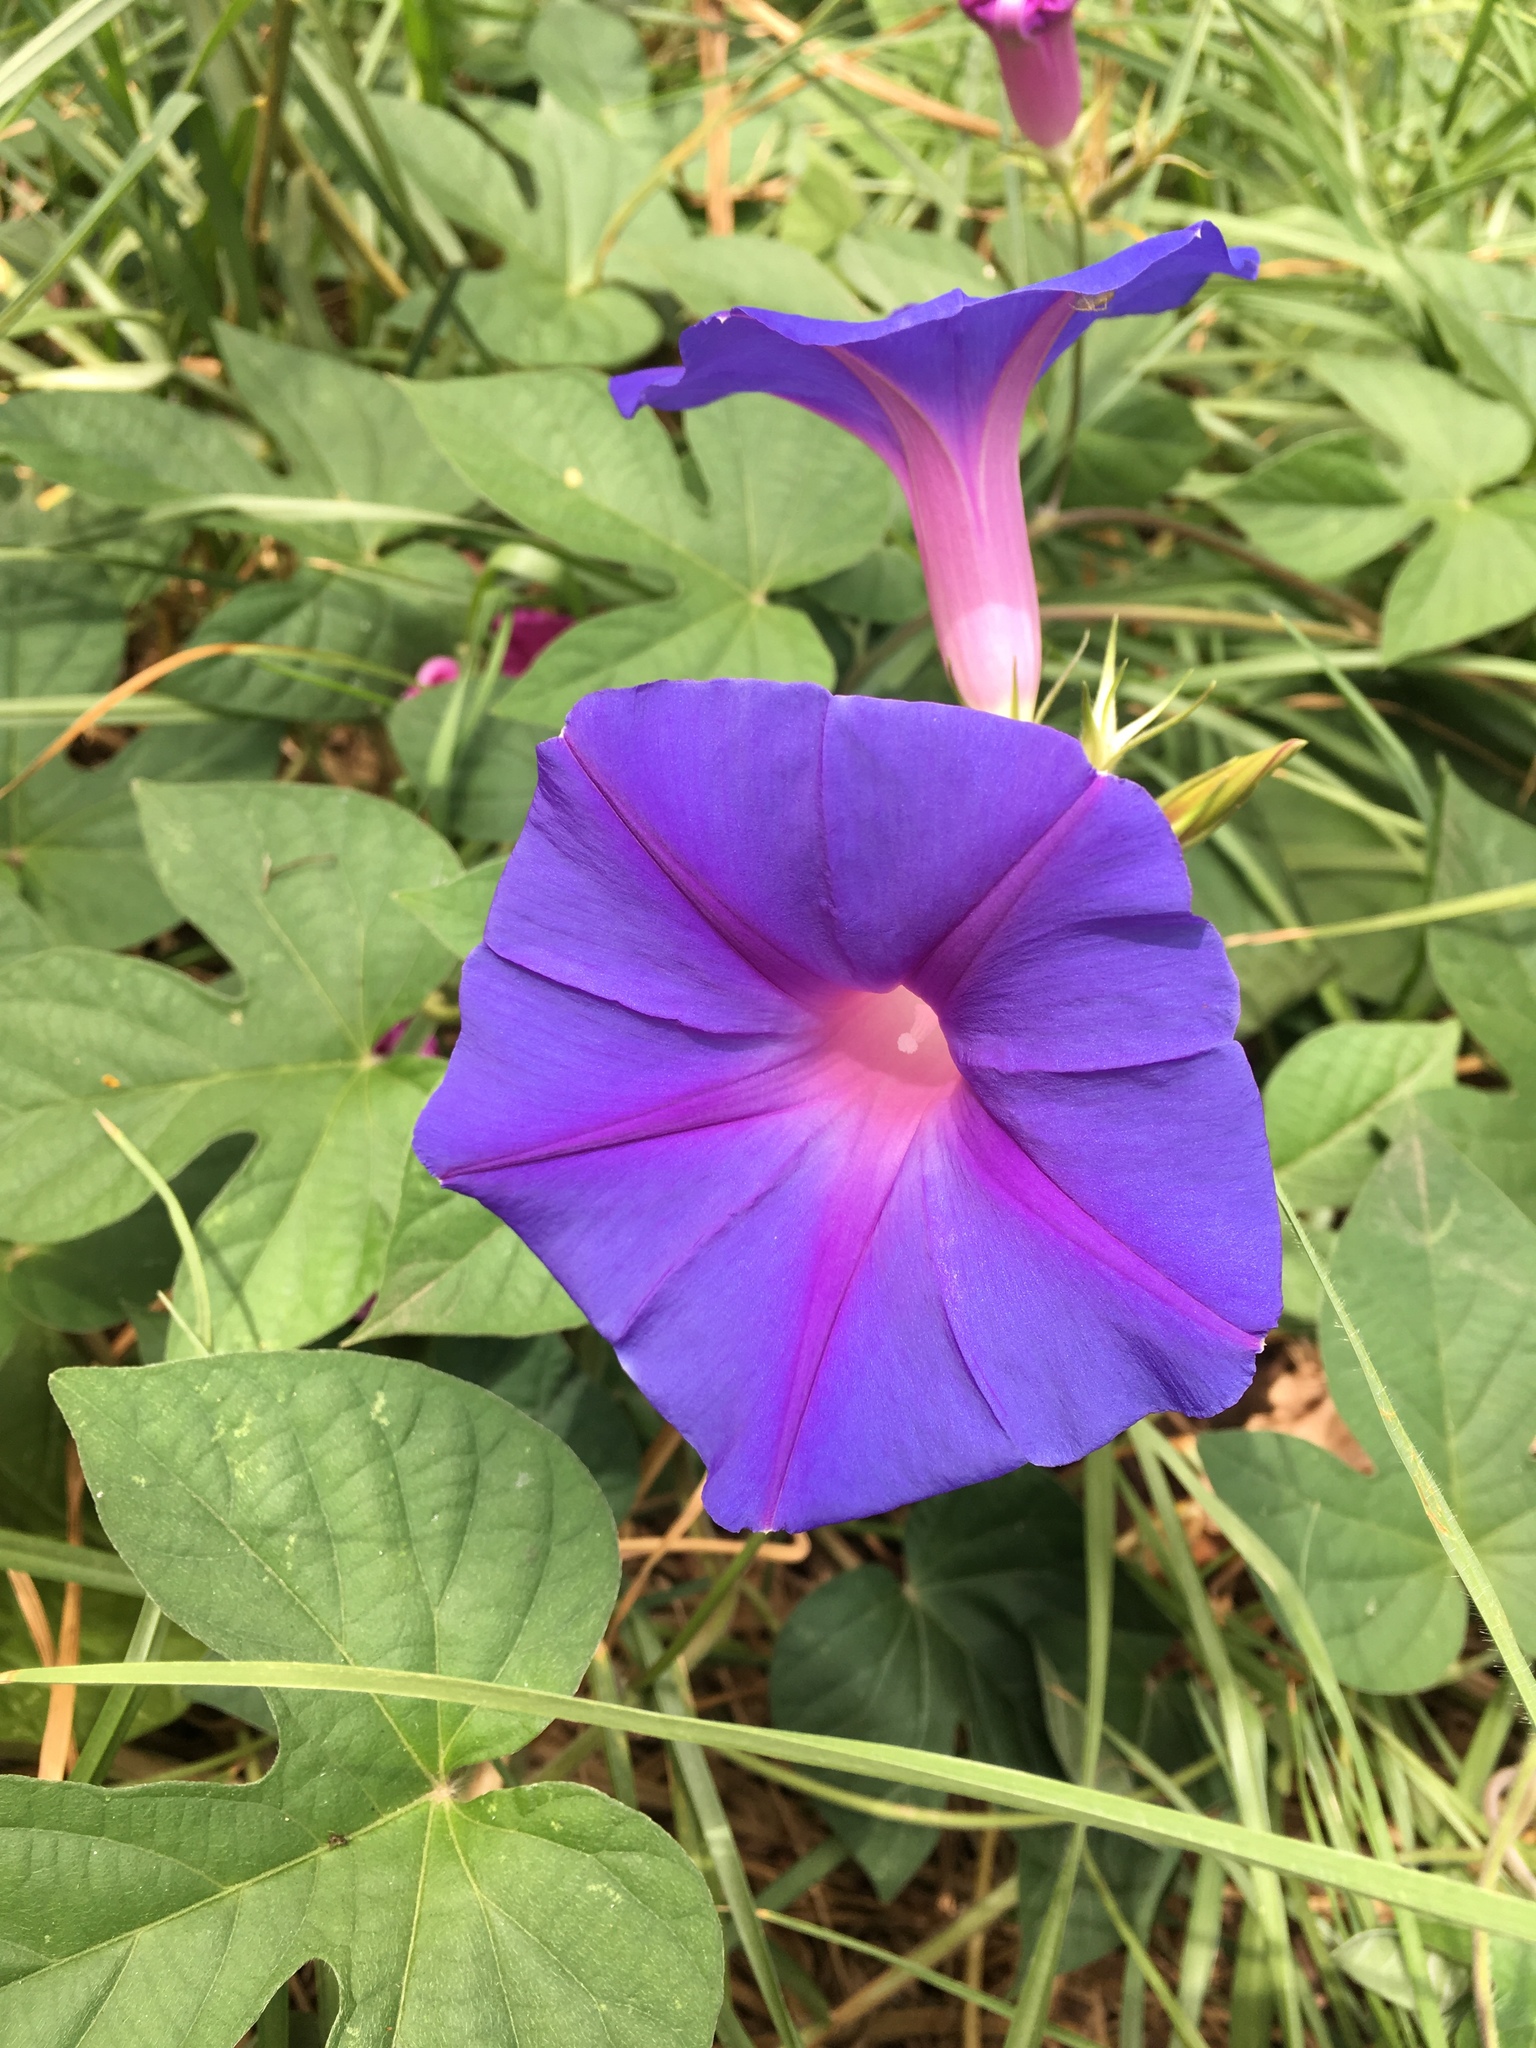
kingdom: Plantae
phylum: Tracheophyta
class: Magnoliopsida
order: Solanales
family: Convolvulaceae
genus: Ipomoea
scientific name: Ipomoea indica
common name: Blue dawnflower
